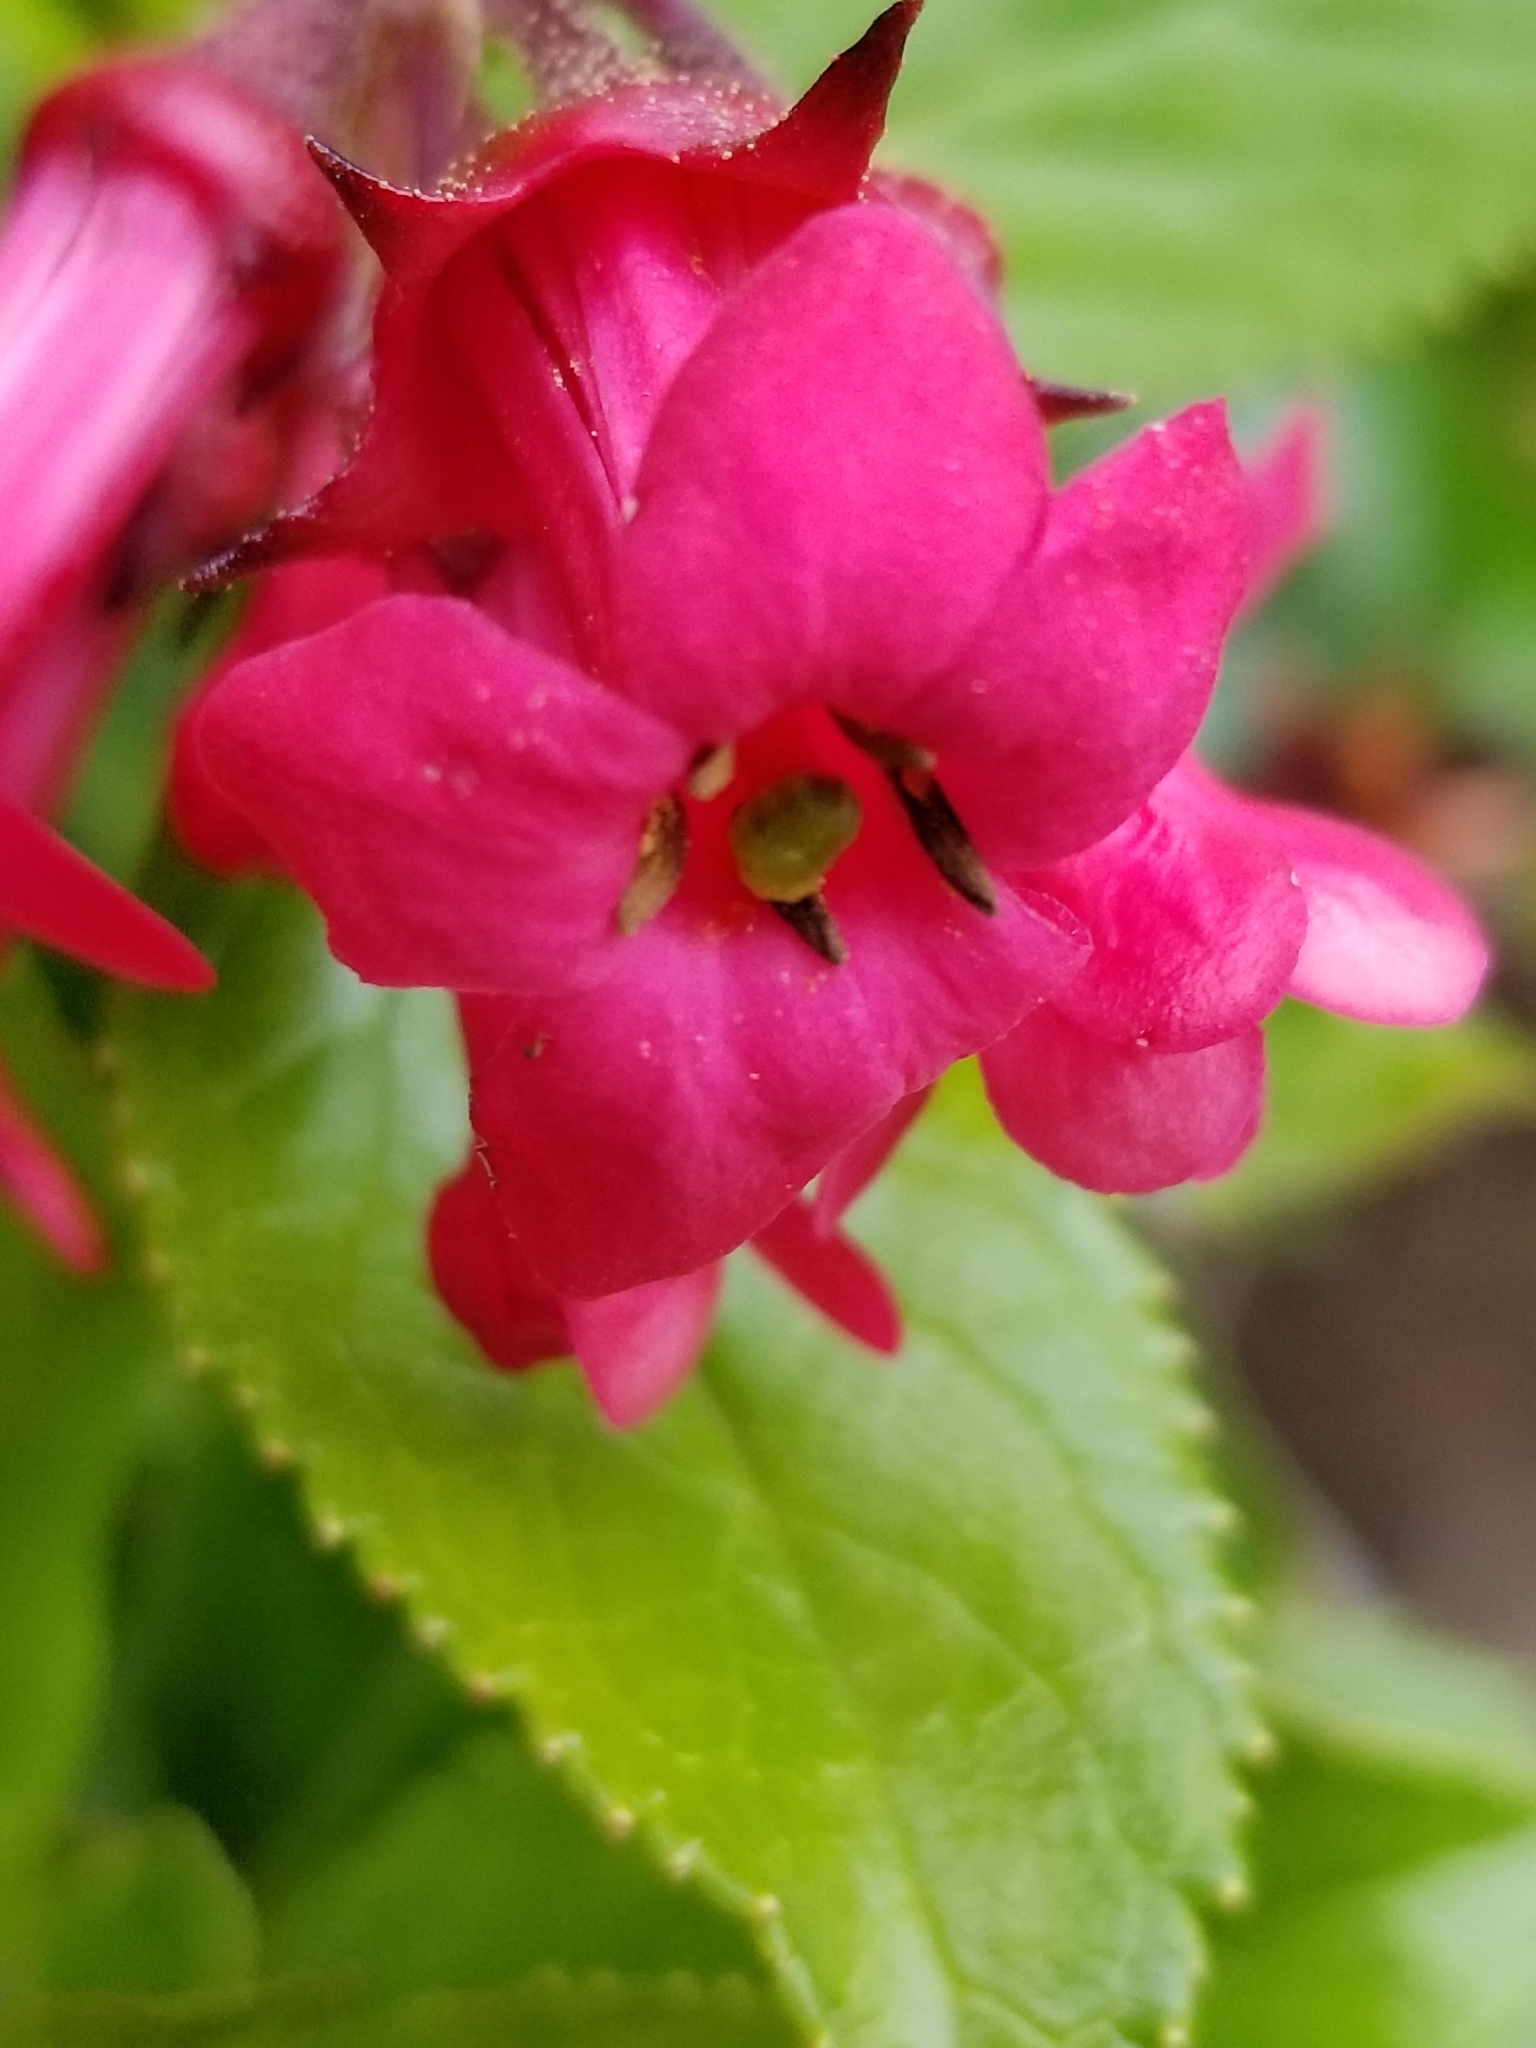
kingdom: Plantae
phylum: Tracheophyta
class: Magnoliopsida
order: Escalloniales
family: Escalloniaceae
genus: Escallonia
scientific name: Escallonia rubra
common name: Redclaws
